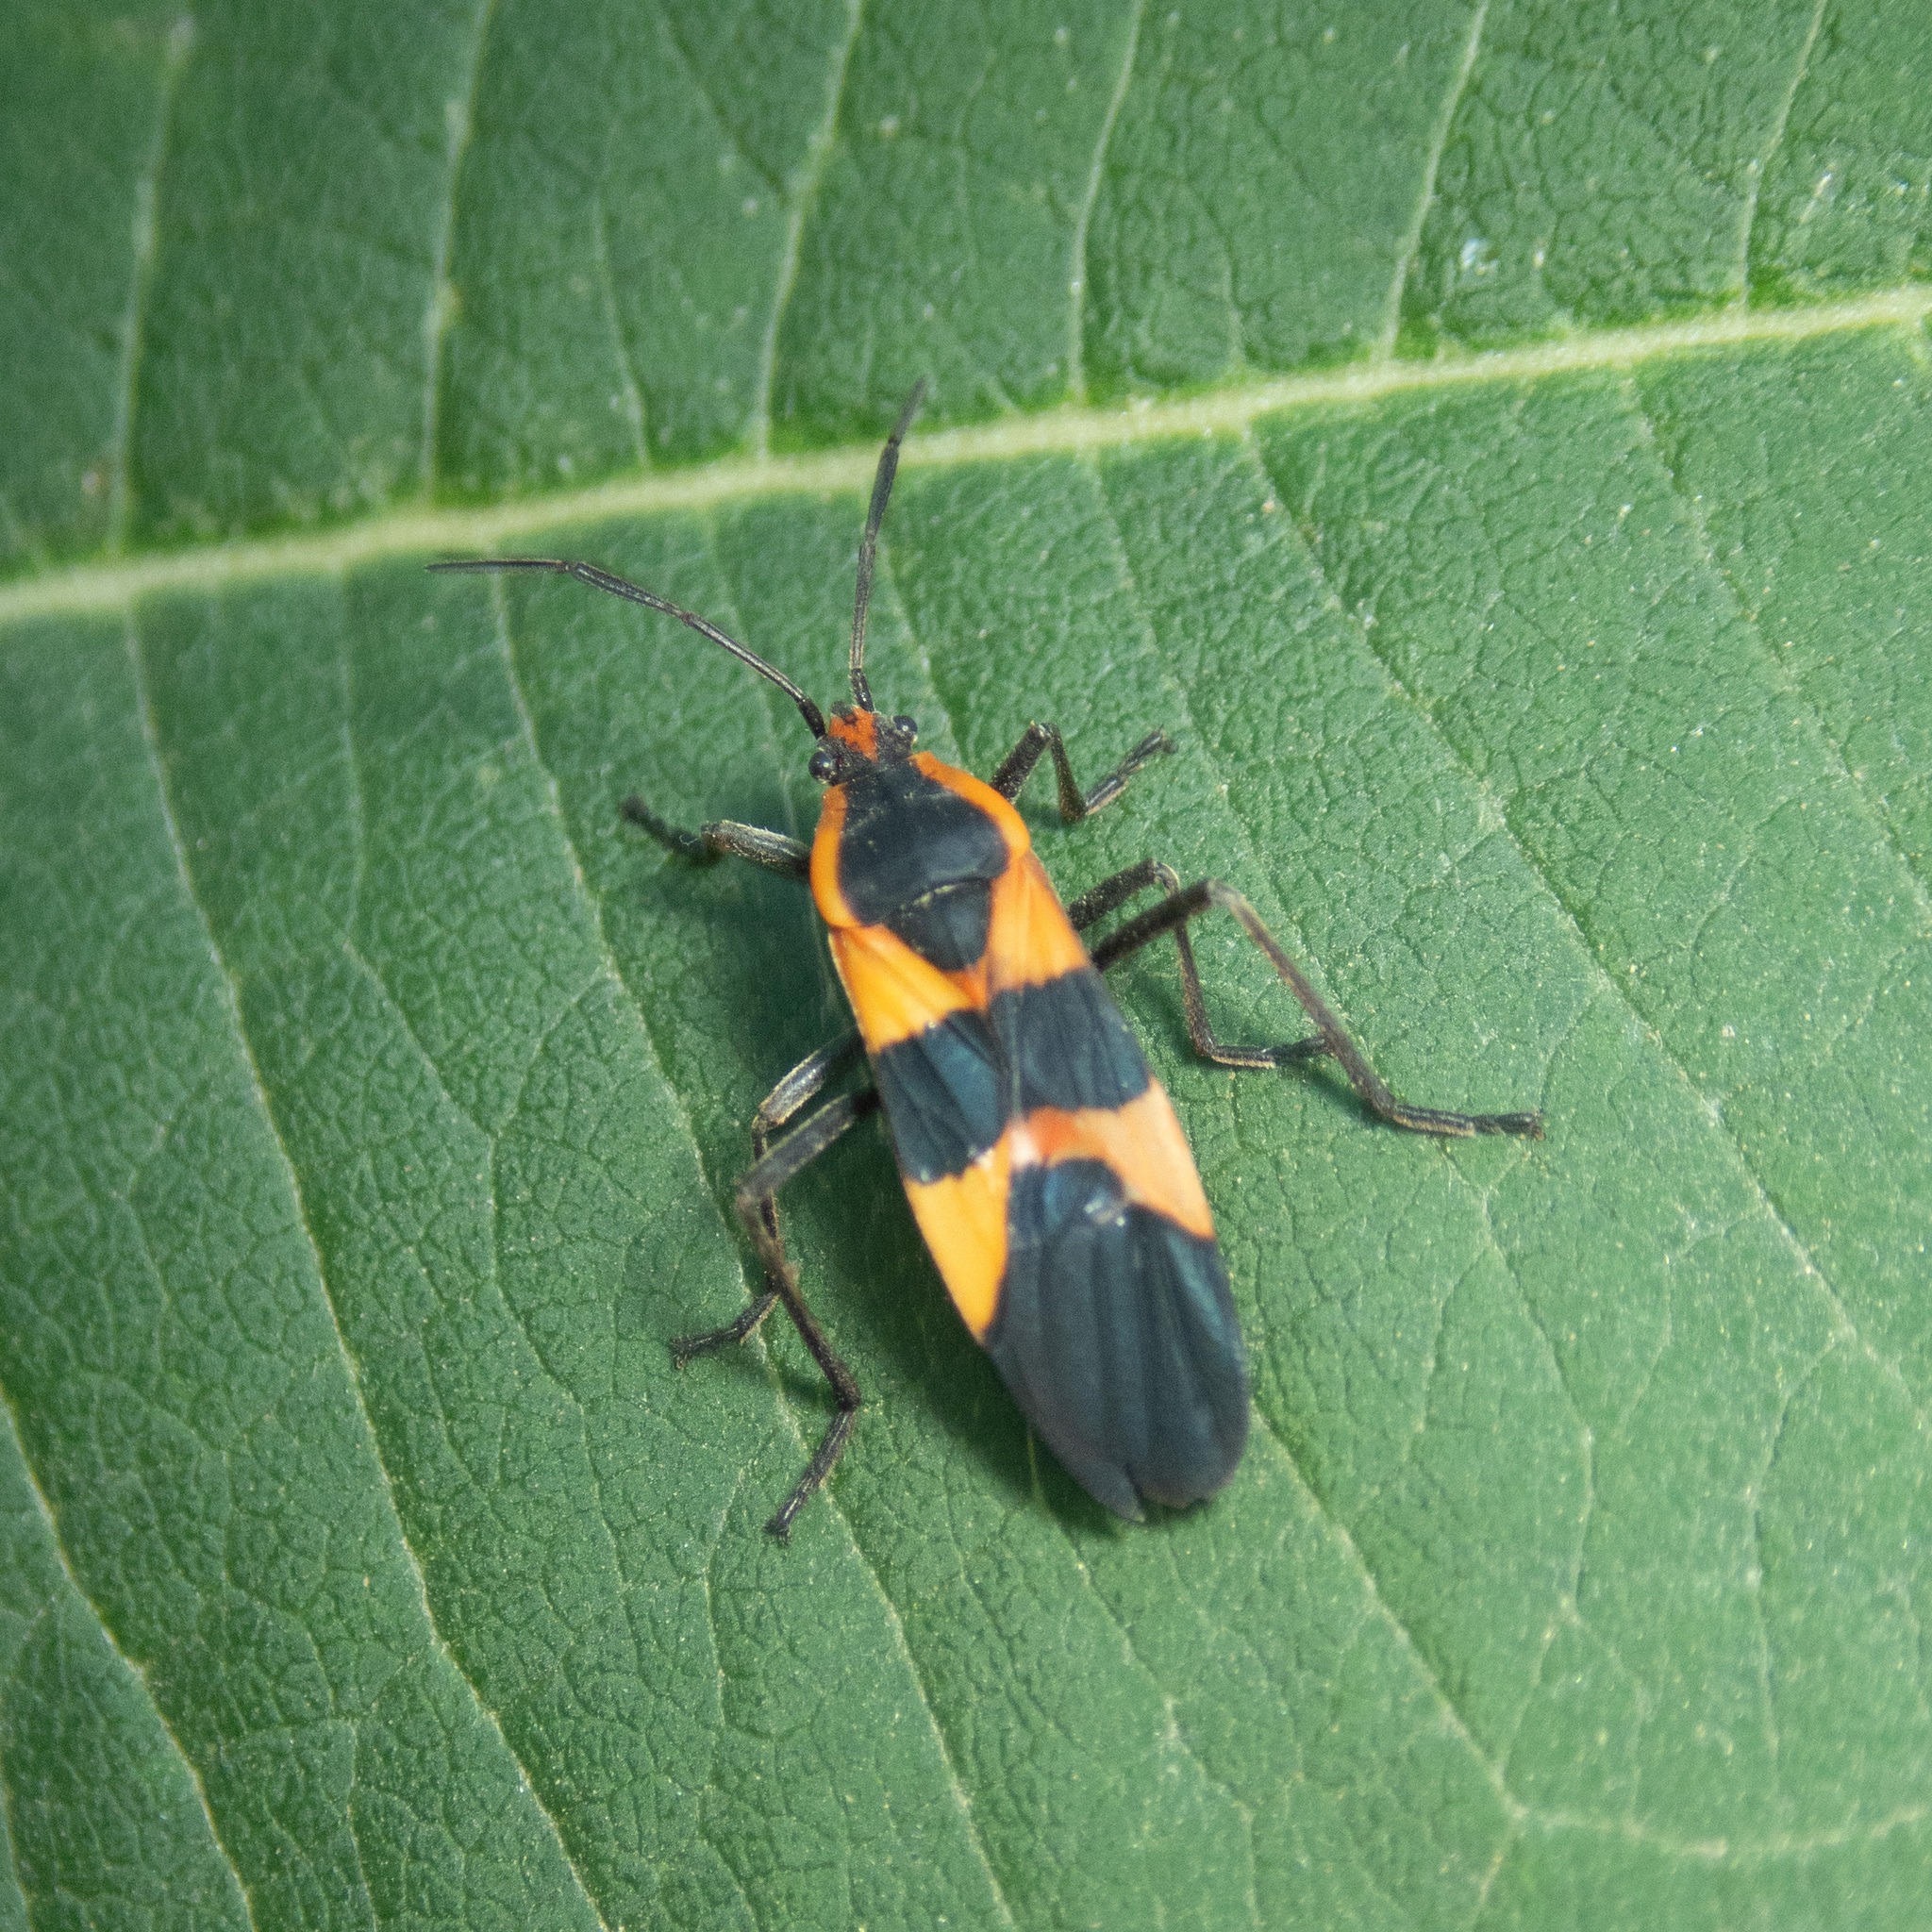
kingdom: Animalia
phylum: Arthropoda
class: Insecta
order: Hemiptera
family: Lygaeidae
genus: Oncopeltus
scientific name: Oncopeltus fasciatus
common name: Large milkweed bug
